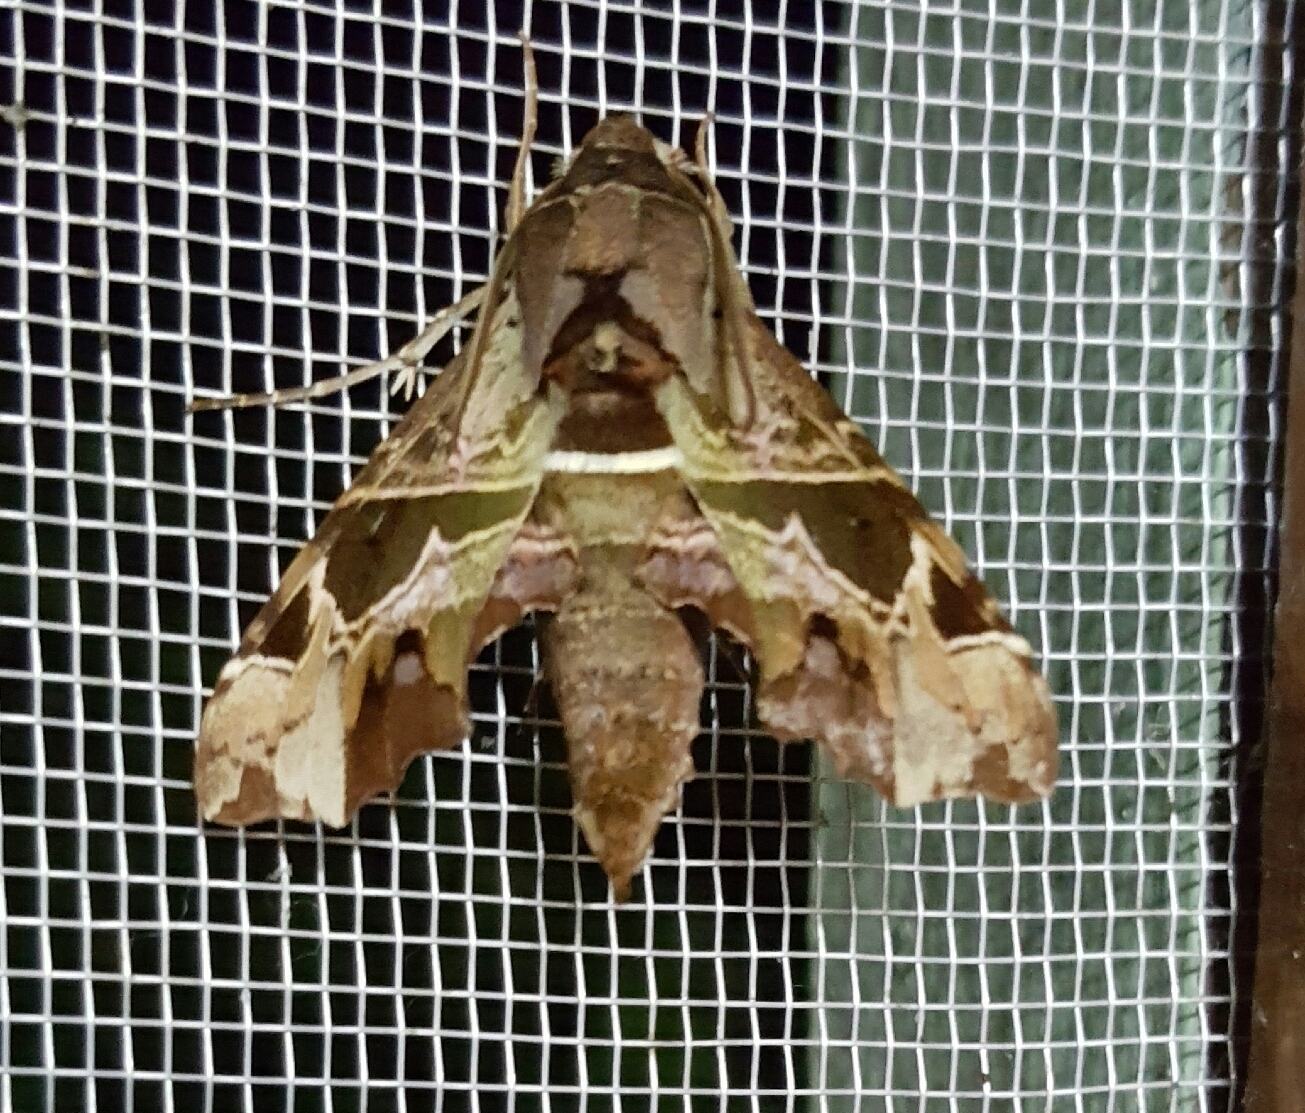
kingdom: Animalia
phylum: Arthropoda
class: Insecta
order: Lepidoptera
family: Sphingidae
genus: Unzela
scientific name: Unzela japix
